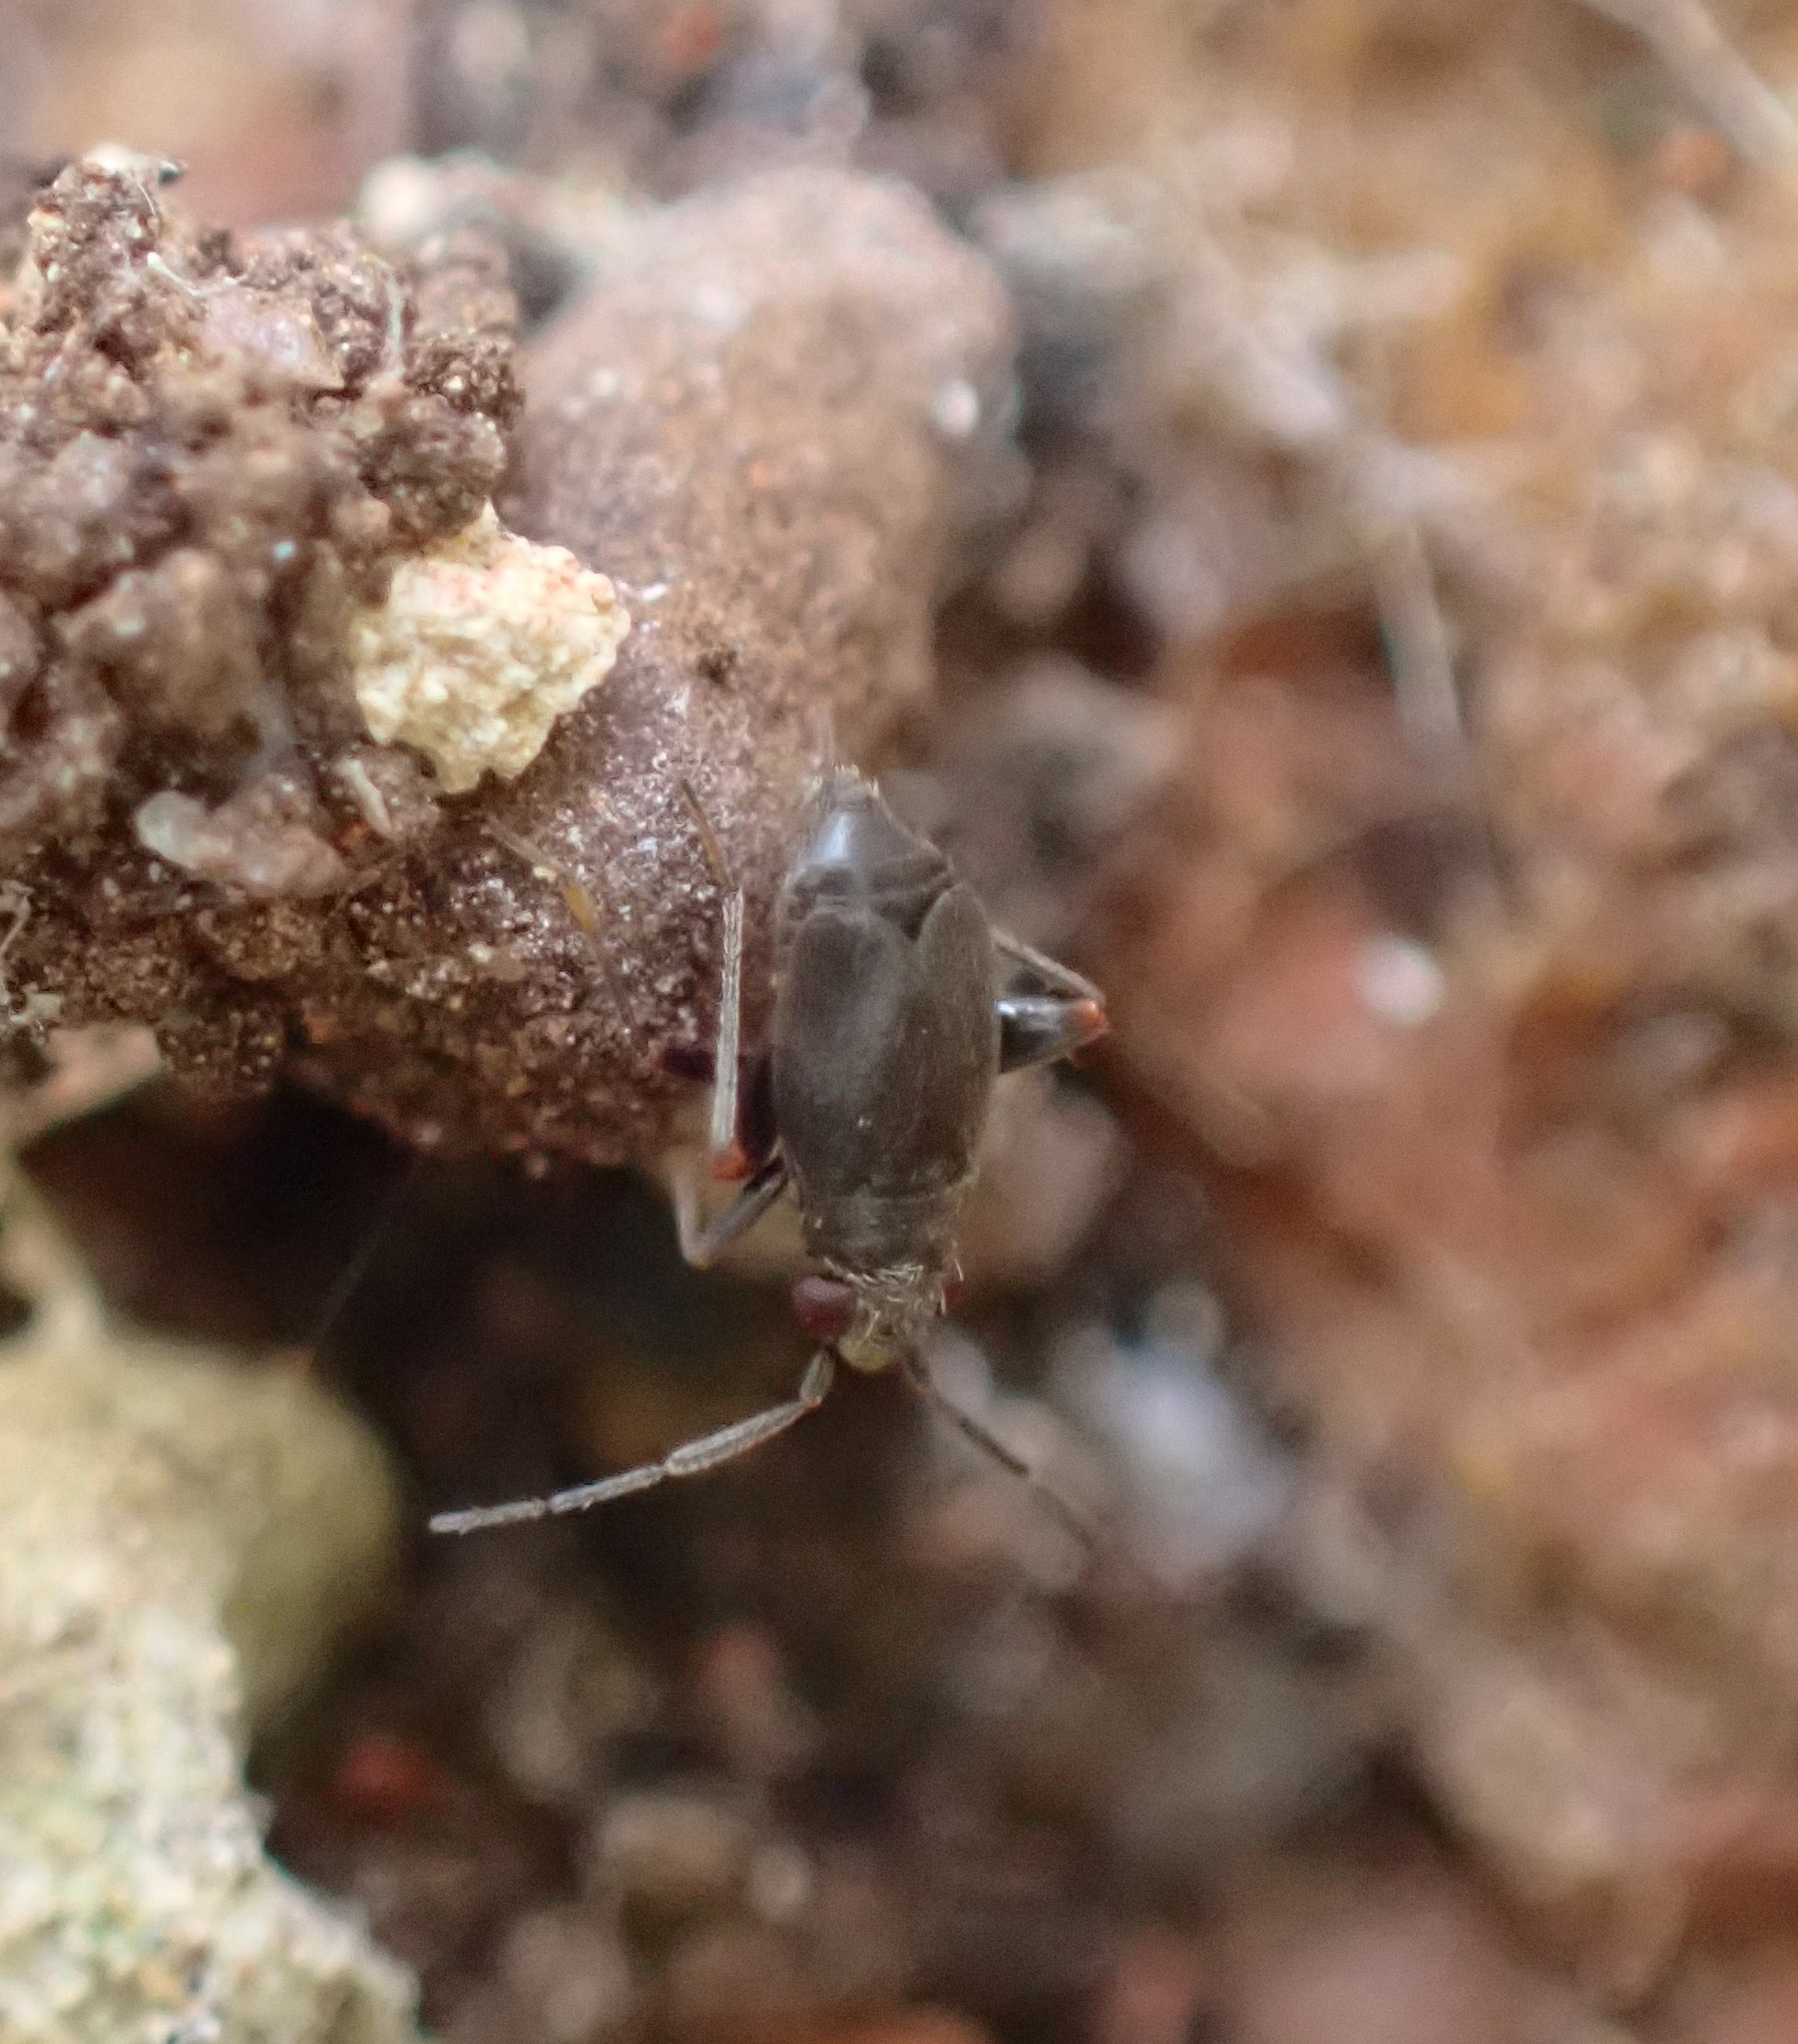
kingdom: Animalia
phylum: Arthropoda
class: Insecta
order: Hemiptera
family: Miridae
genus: Chlamydatus
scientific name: Chlamydatus evanescens
